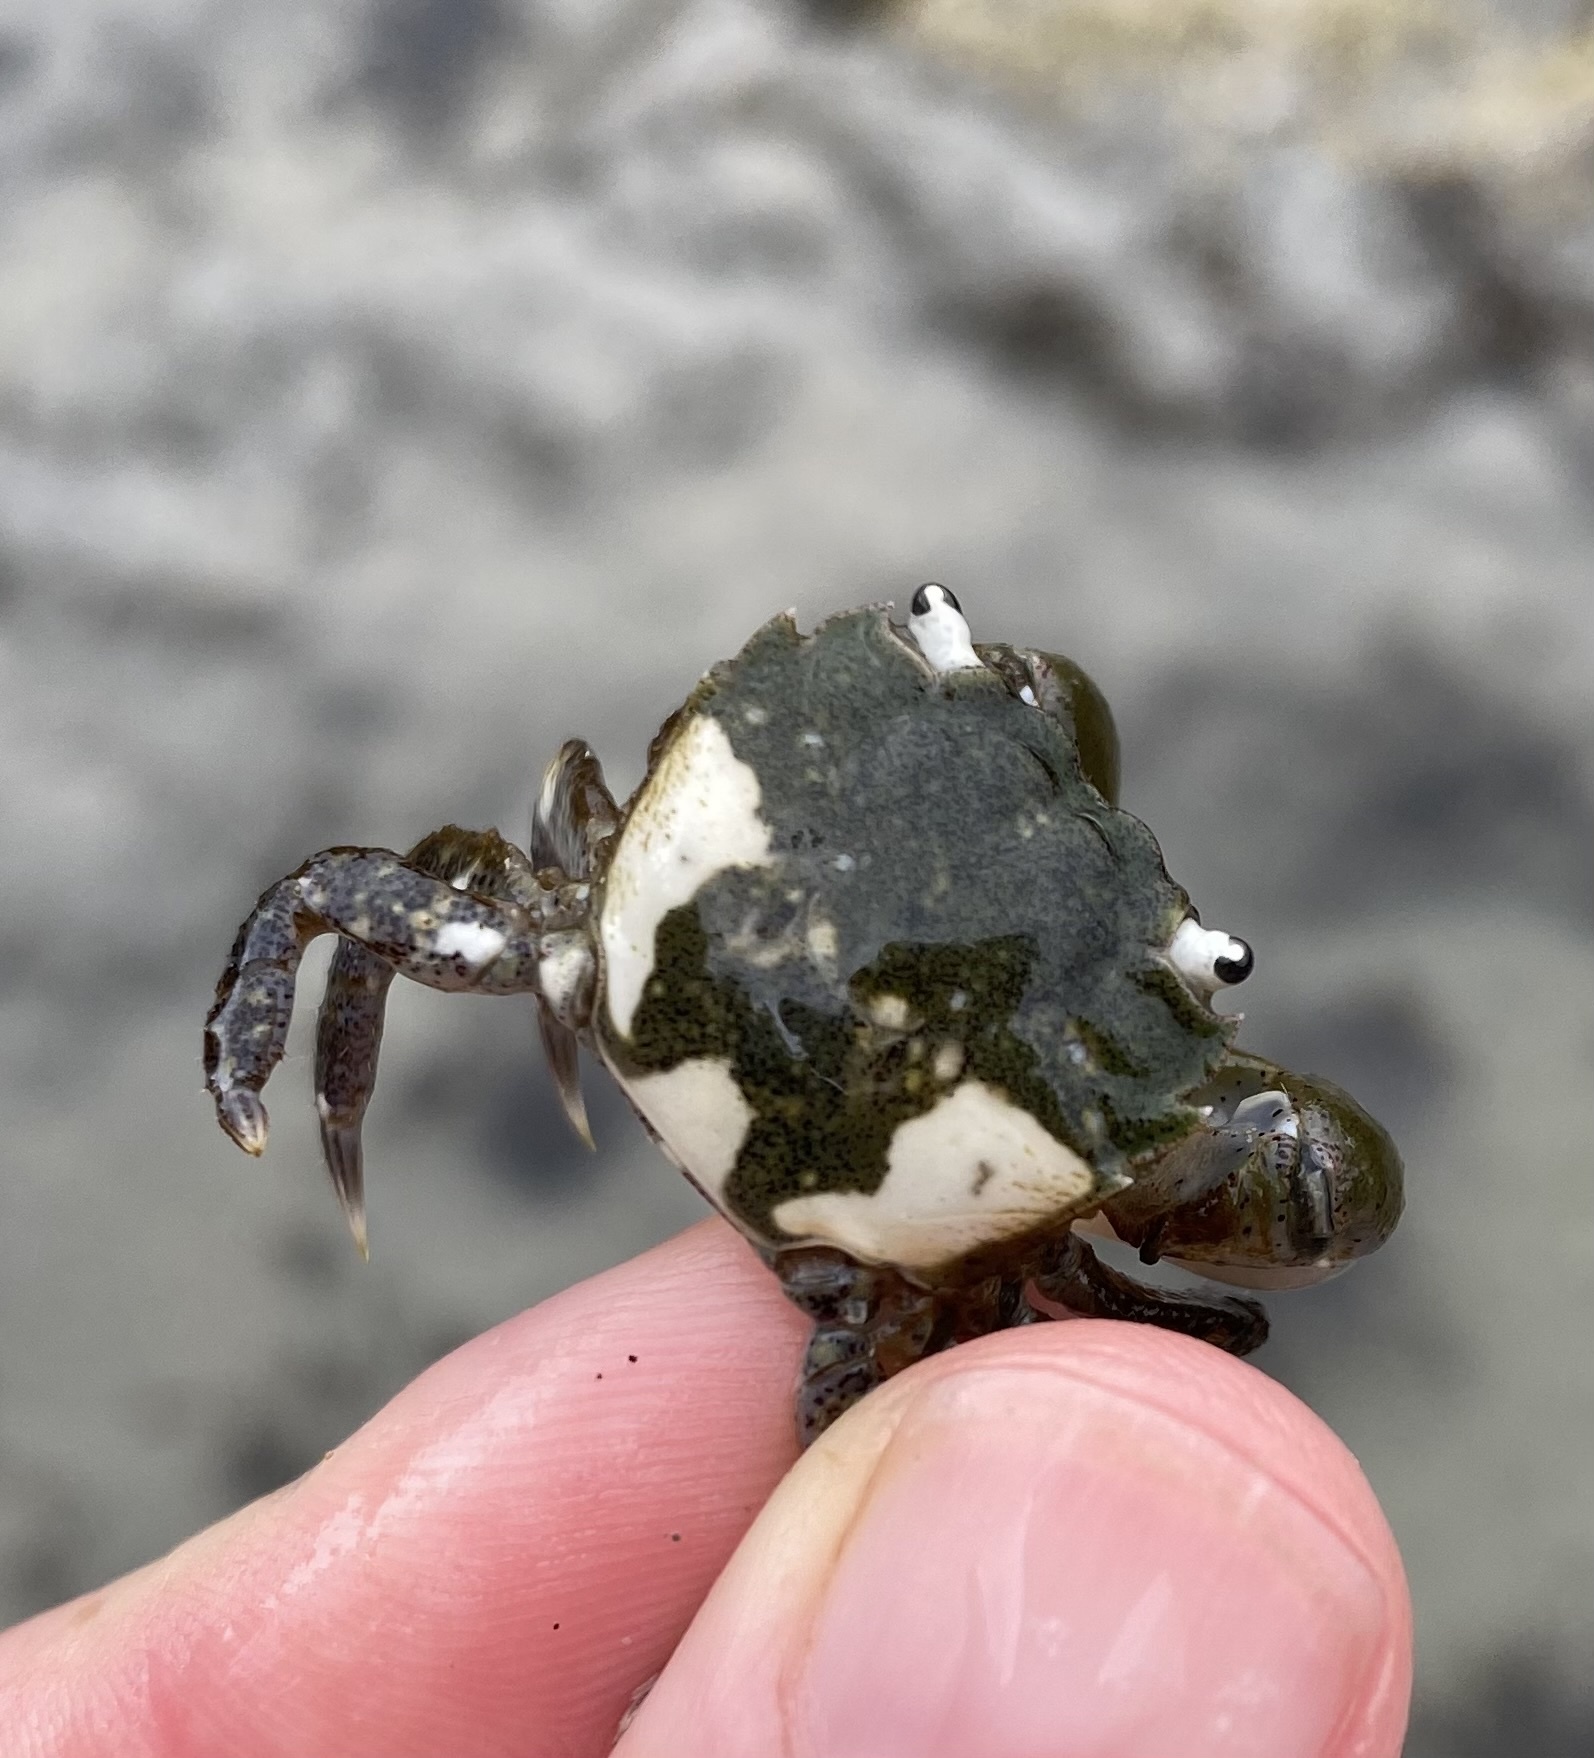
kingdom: Animalia
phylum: Arthropoda
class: Malacostraca
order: Decapoda
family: Varunidae
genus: Hemigrapsus
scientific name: Hemigrapsus oregonensis
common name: Yellow shore crab
